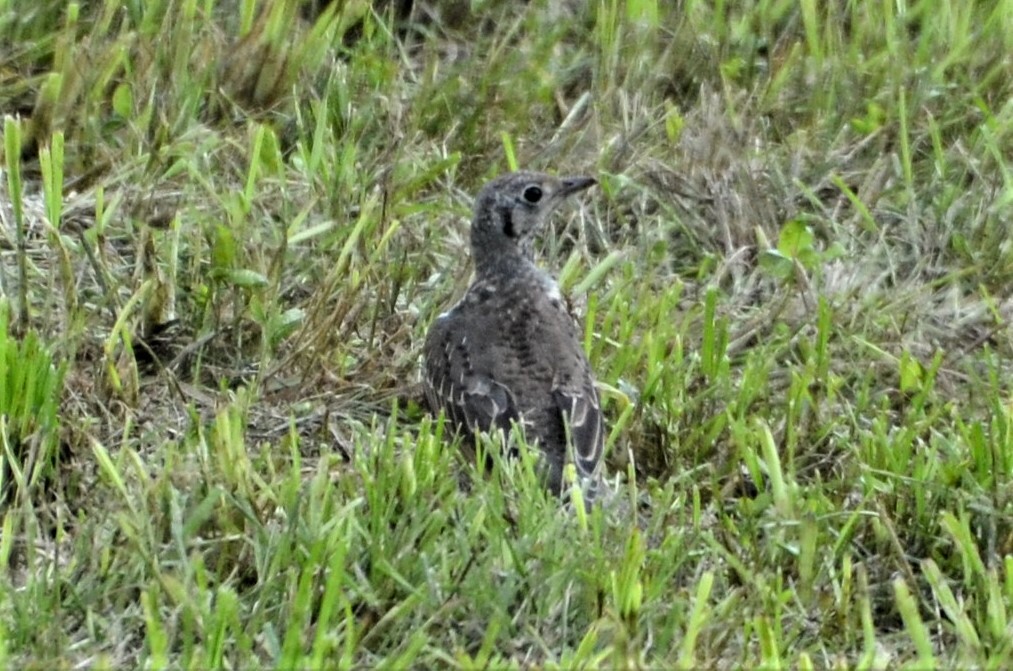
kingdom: Animalia
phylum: Chordata
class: Aves
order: Passeriformes
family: Turdidae
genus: Turdus
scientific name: Turdus viscivorus
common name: Mistle thrush
